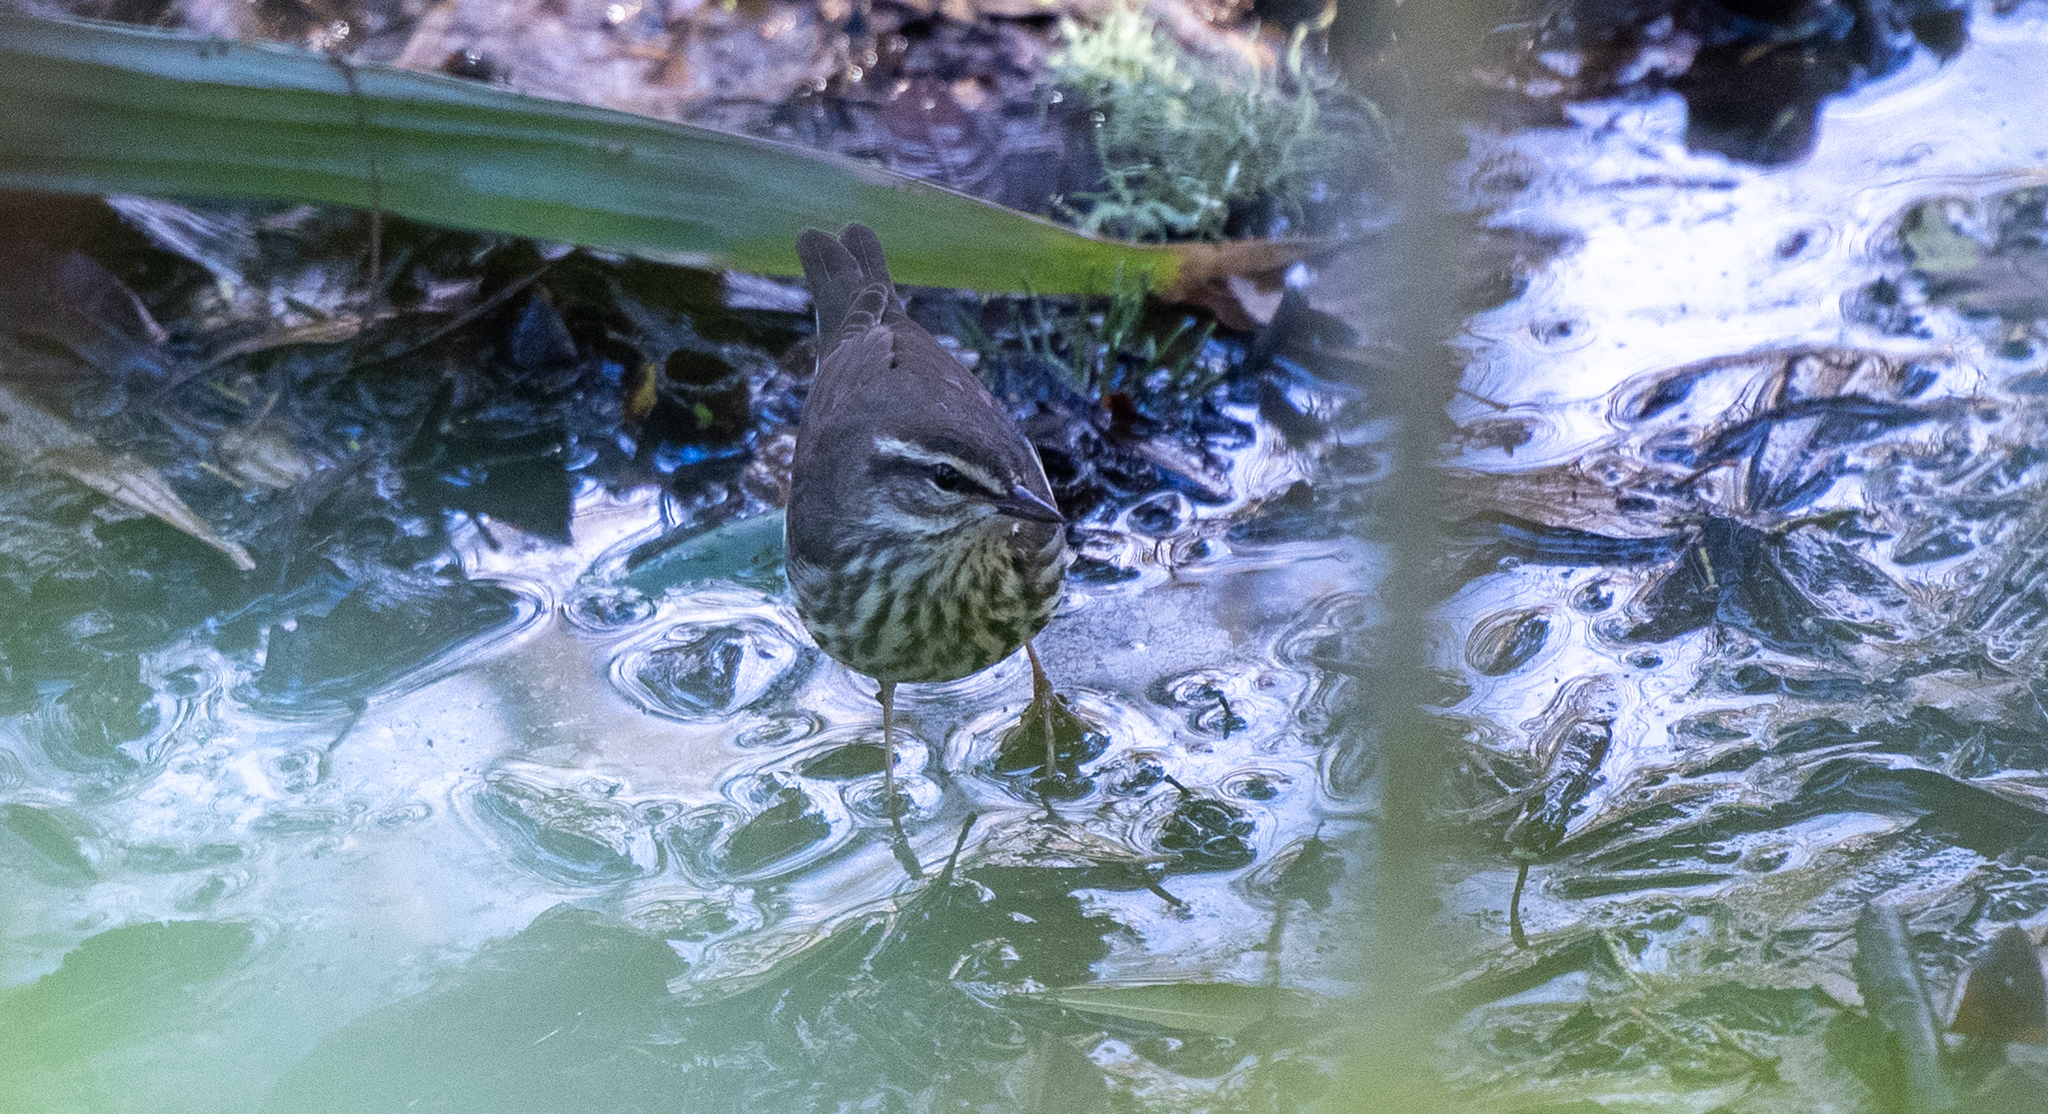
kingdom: Animalia
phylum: Chordata
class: Aves
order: Passeriformes
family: Parulidae
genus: Parkesia
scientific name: Parkesia noveboracensis
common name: Northern waterthrush
